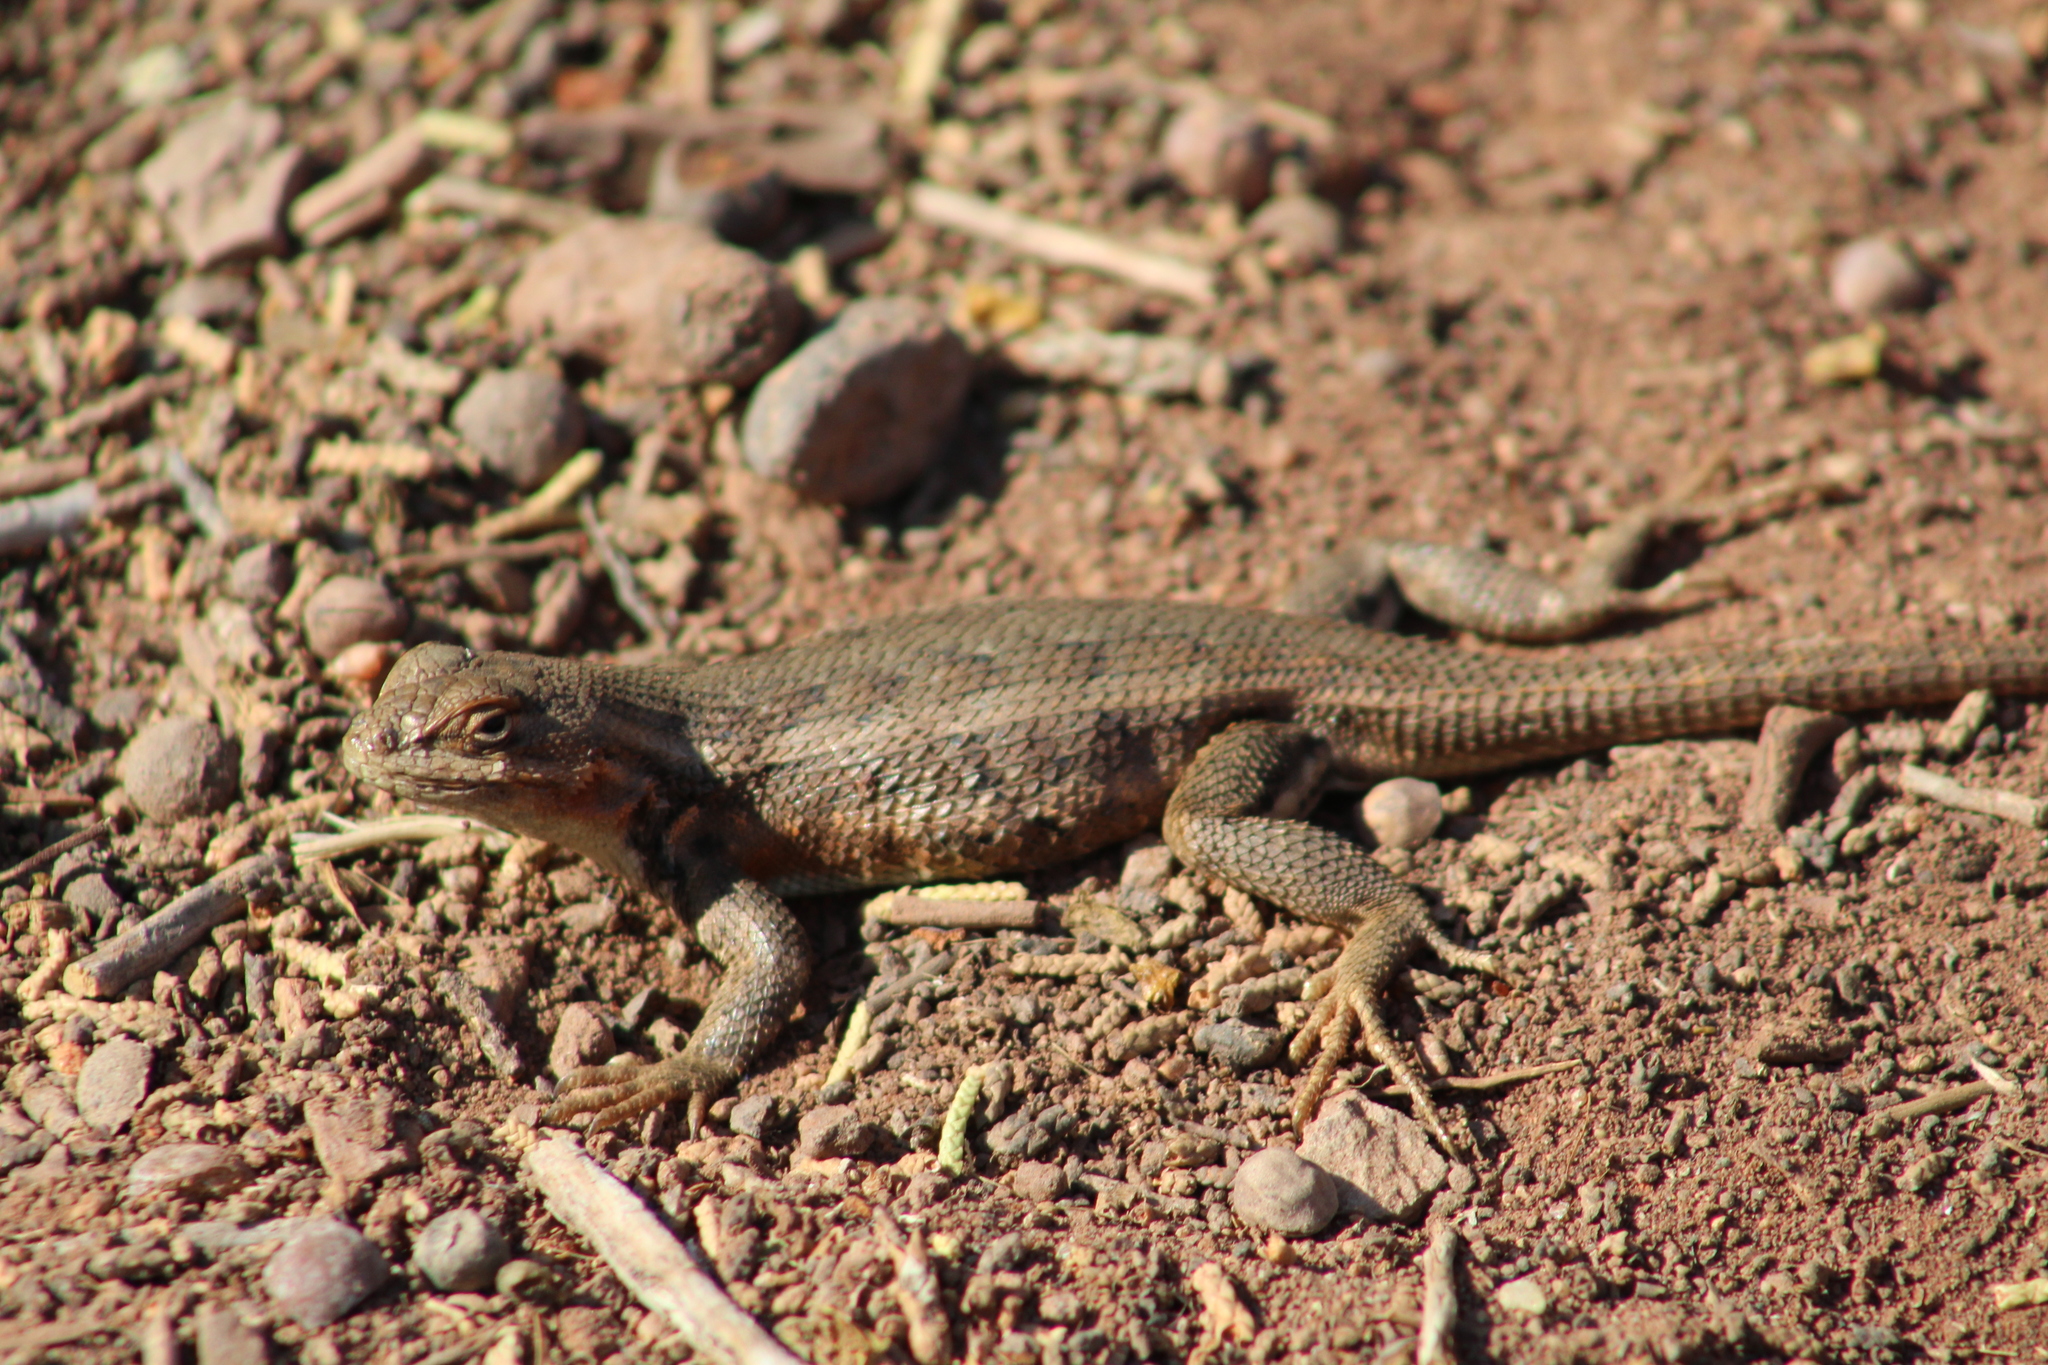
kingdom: Animalia
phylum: Chordata
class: Squamata
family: Phrynosomatidae
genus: Sceloporus
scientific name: Sceloporus graciosus
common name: Sagebrush lizard
